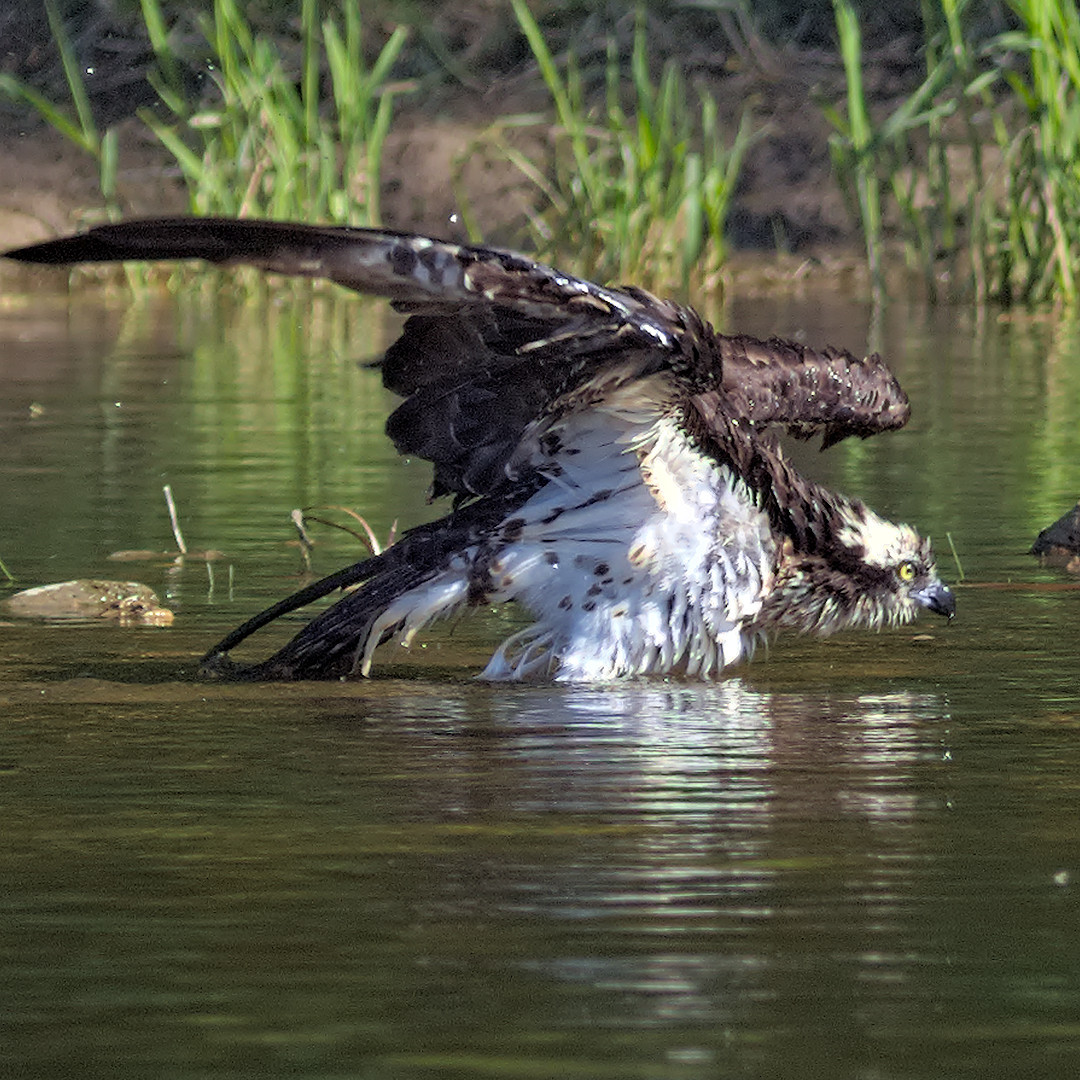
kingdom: Animalia
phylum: Chordata
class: Aves
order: Accipitriformes
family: Pandionidae
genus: Pandion
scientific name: Pandion haliaetus
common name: Osprey
